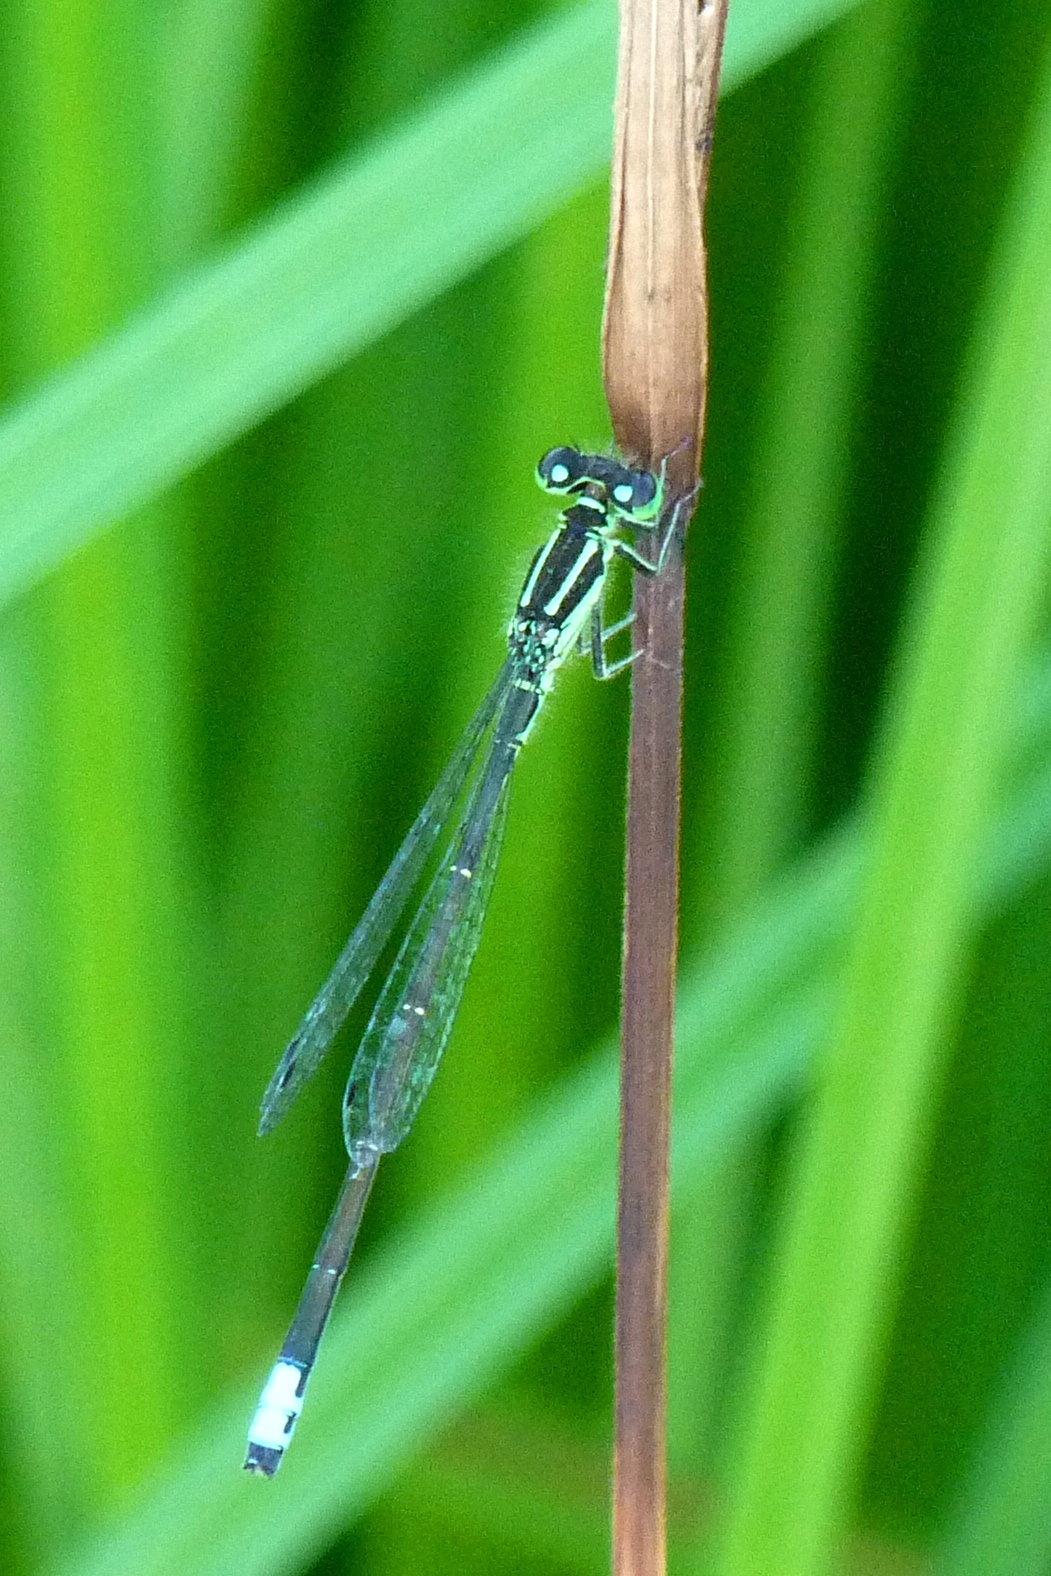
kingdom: Animalia
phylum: Arthropoda
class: Insecta
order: Odonata
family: Coenagrionidae
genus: Ischnura
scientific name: Ischnura verticalis
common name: Eastern forktail
